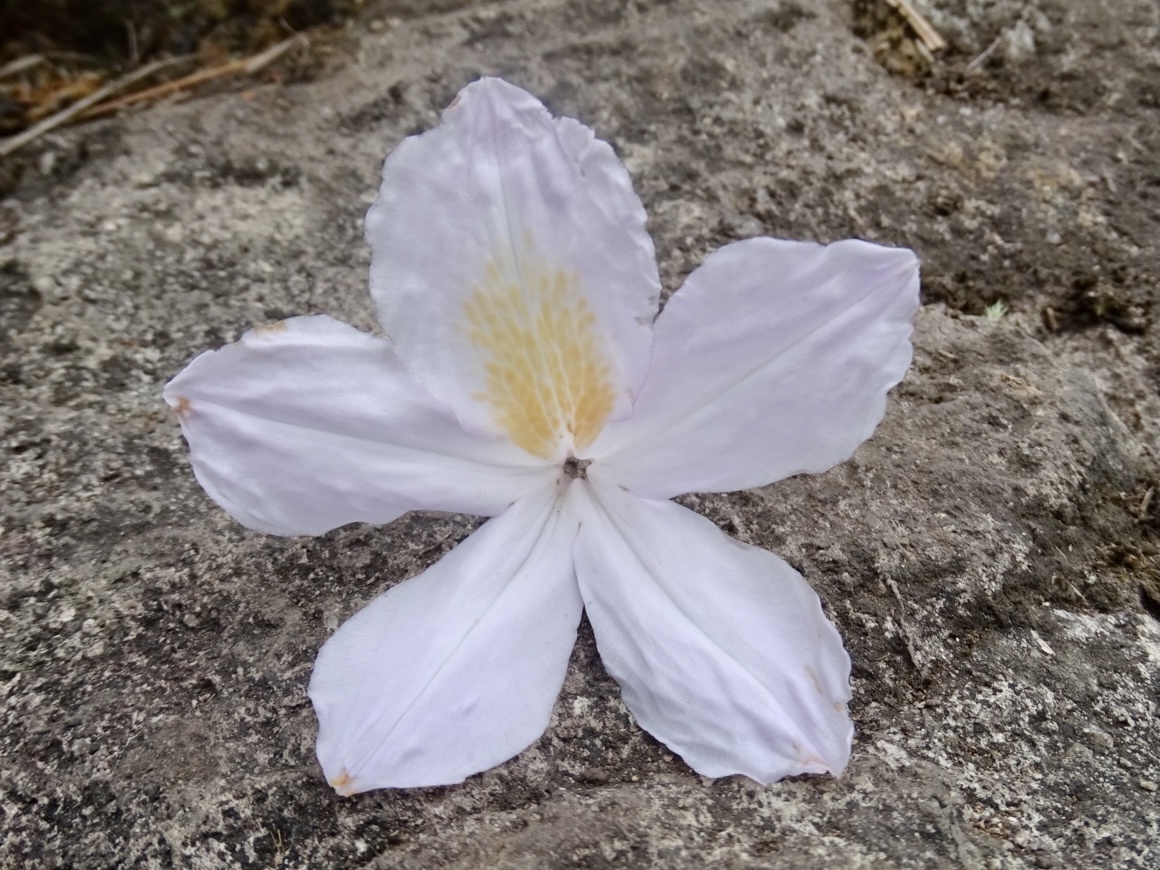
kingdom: Plantae
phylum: Tracheophyta
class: Magnoliopsida
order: Ericales
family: Ericaceae
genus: Rhododendron
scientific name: Rhododendron moulmainense
